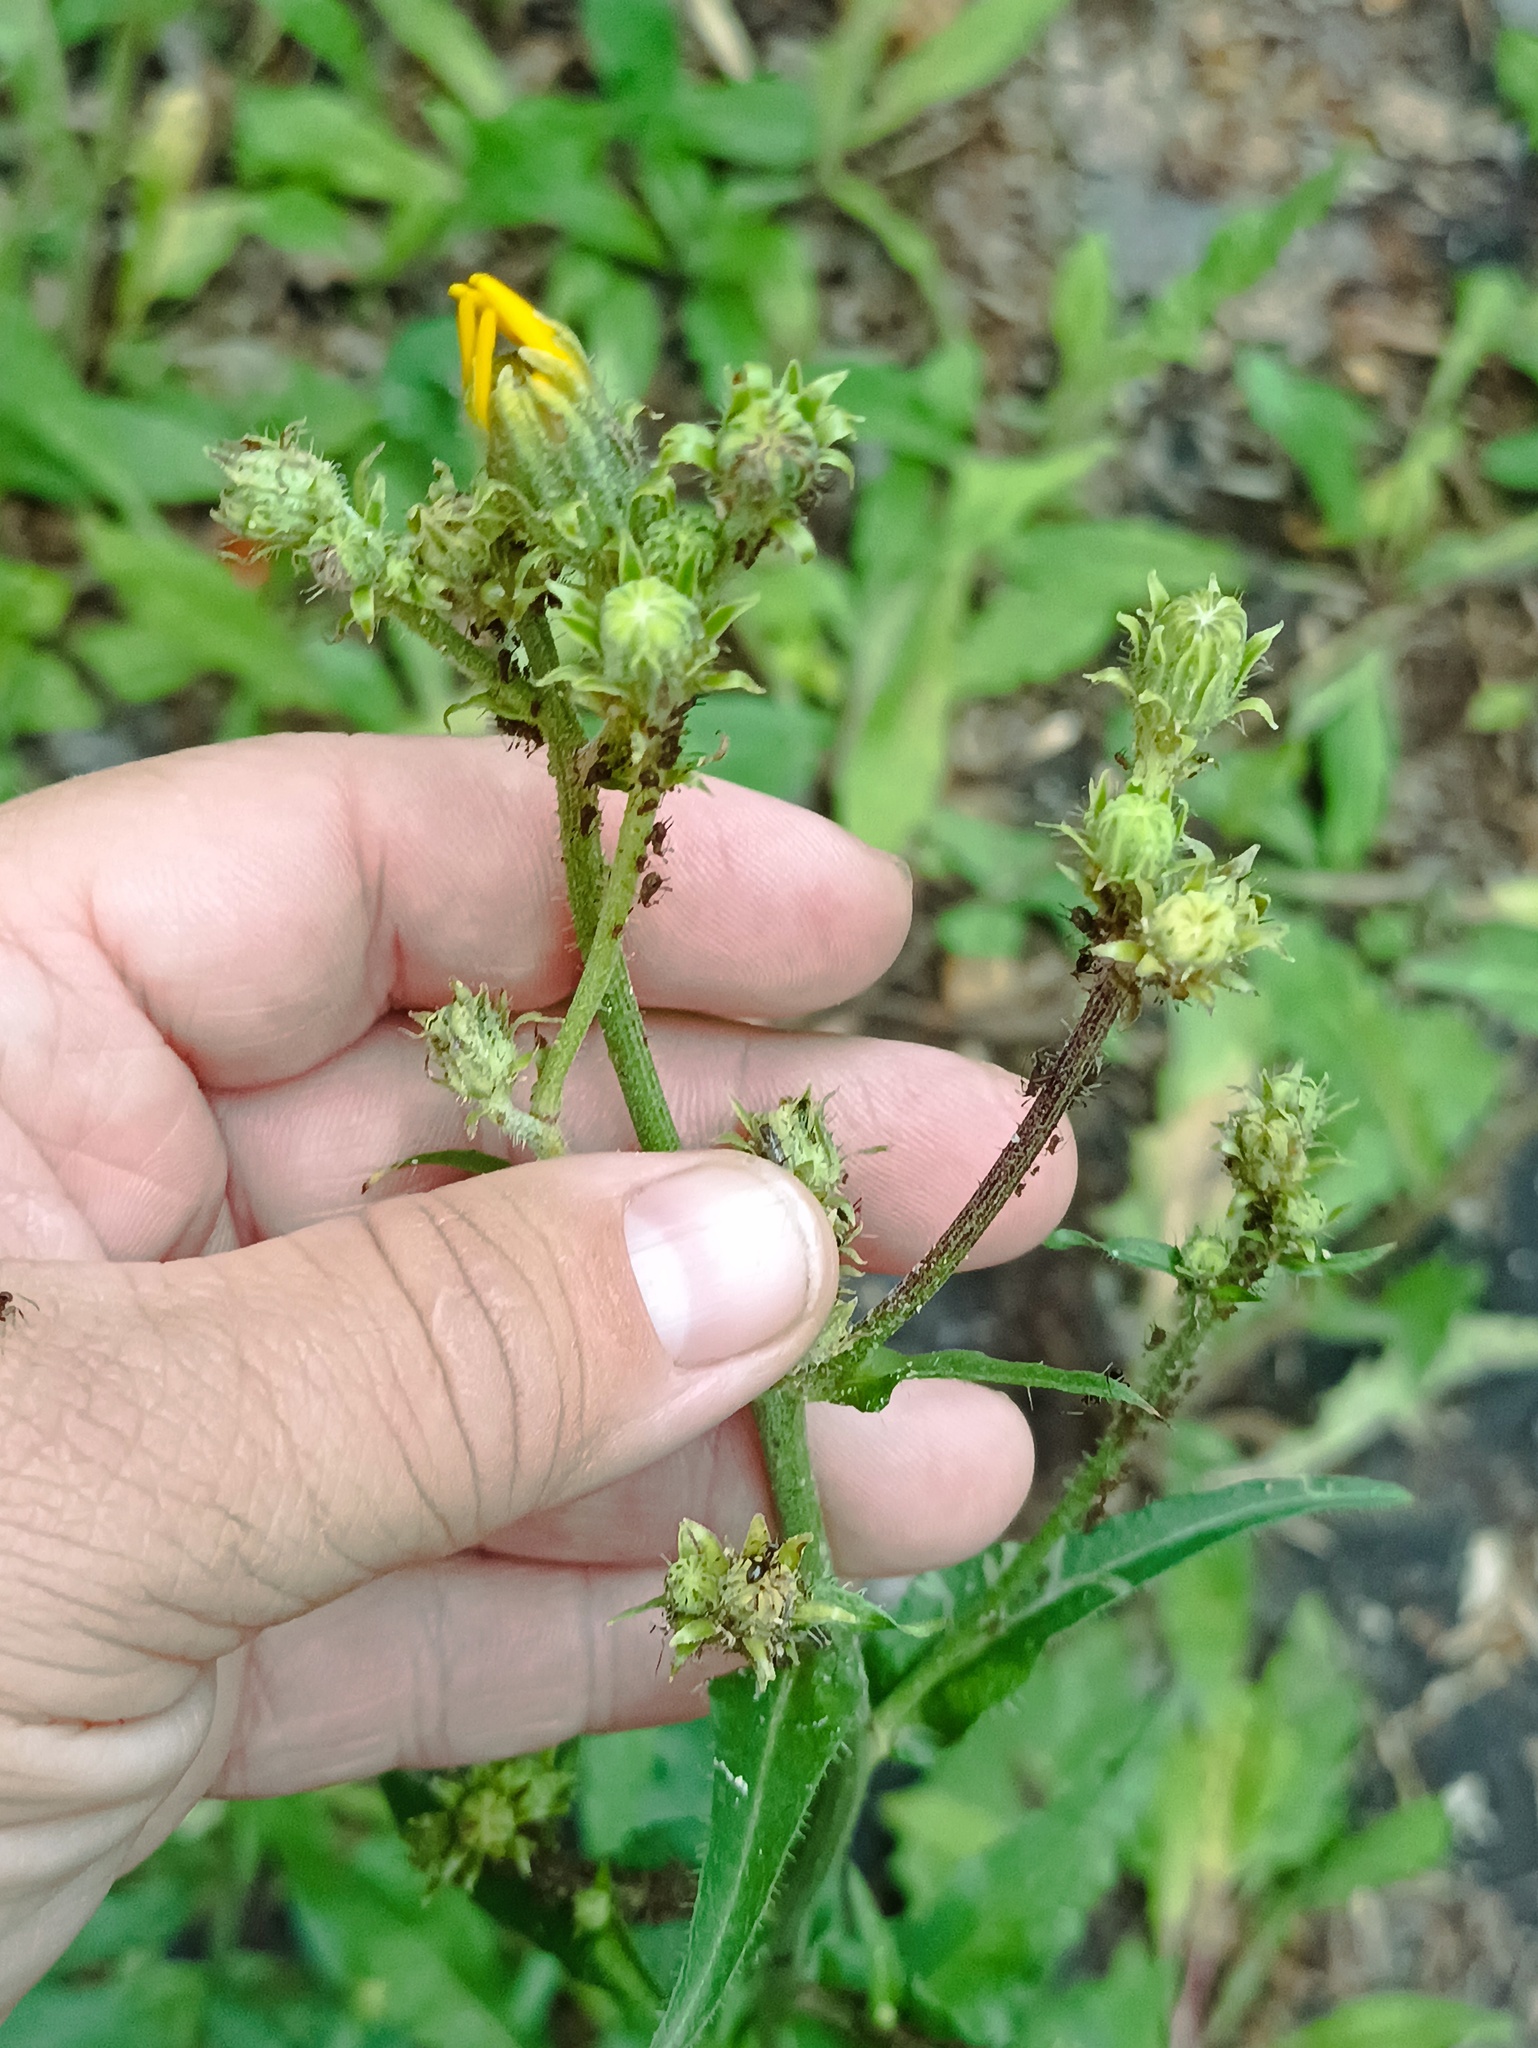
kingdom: Plantae
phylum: Tracheophyta
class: Magnoliopsida
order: Asterales
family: Asteraceae
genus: Picris
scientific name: Picris hieracioides
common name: Hawkweed oxtongue
